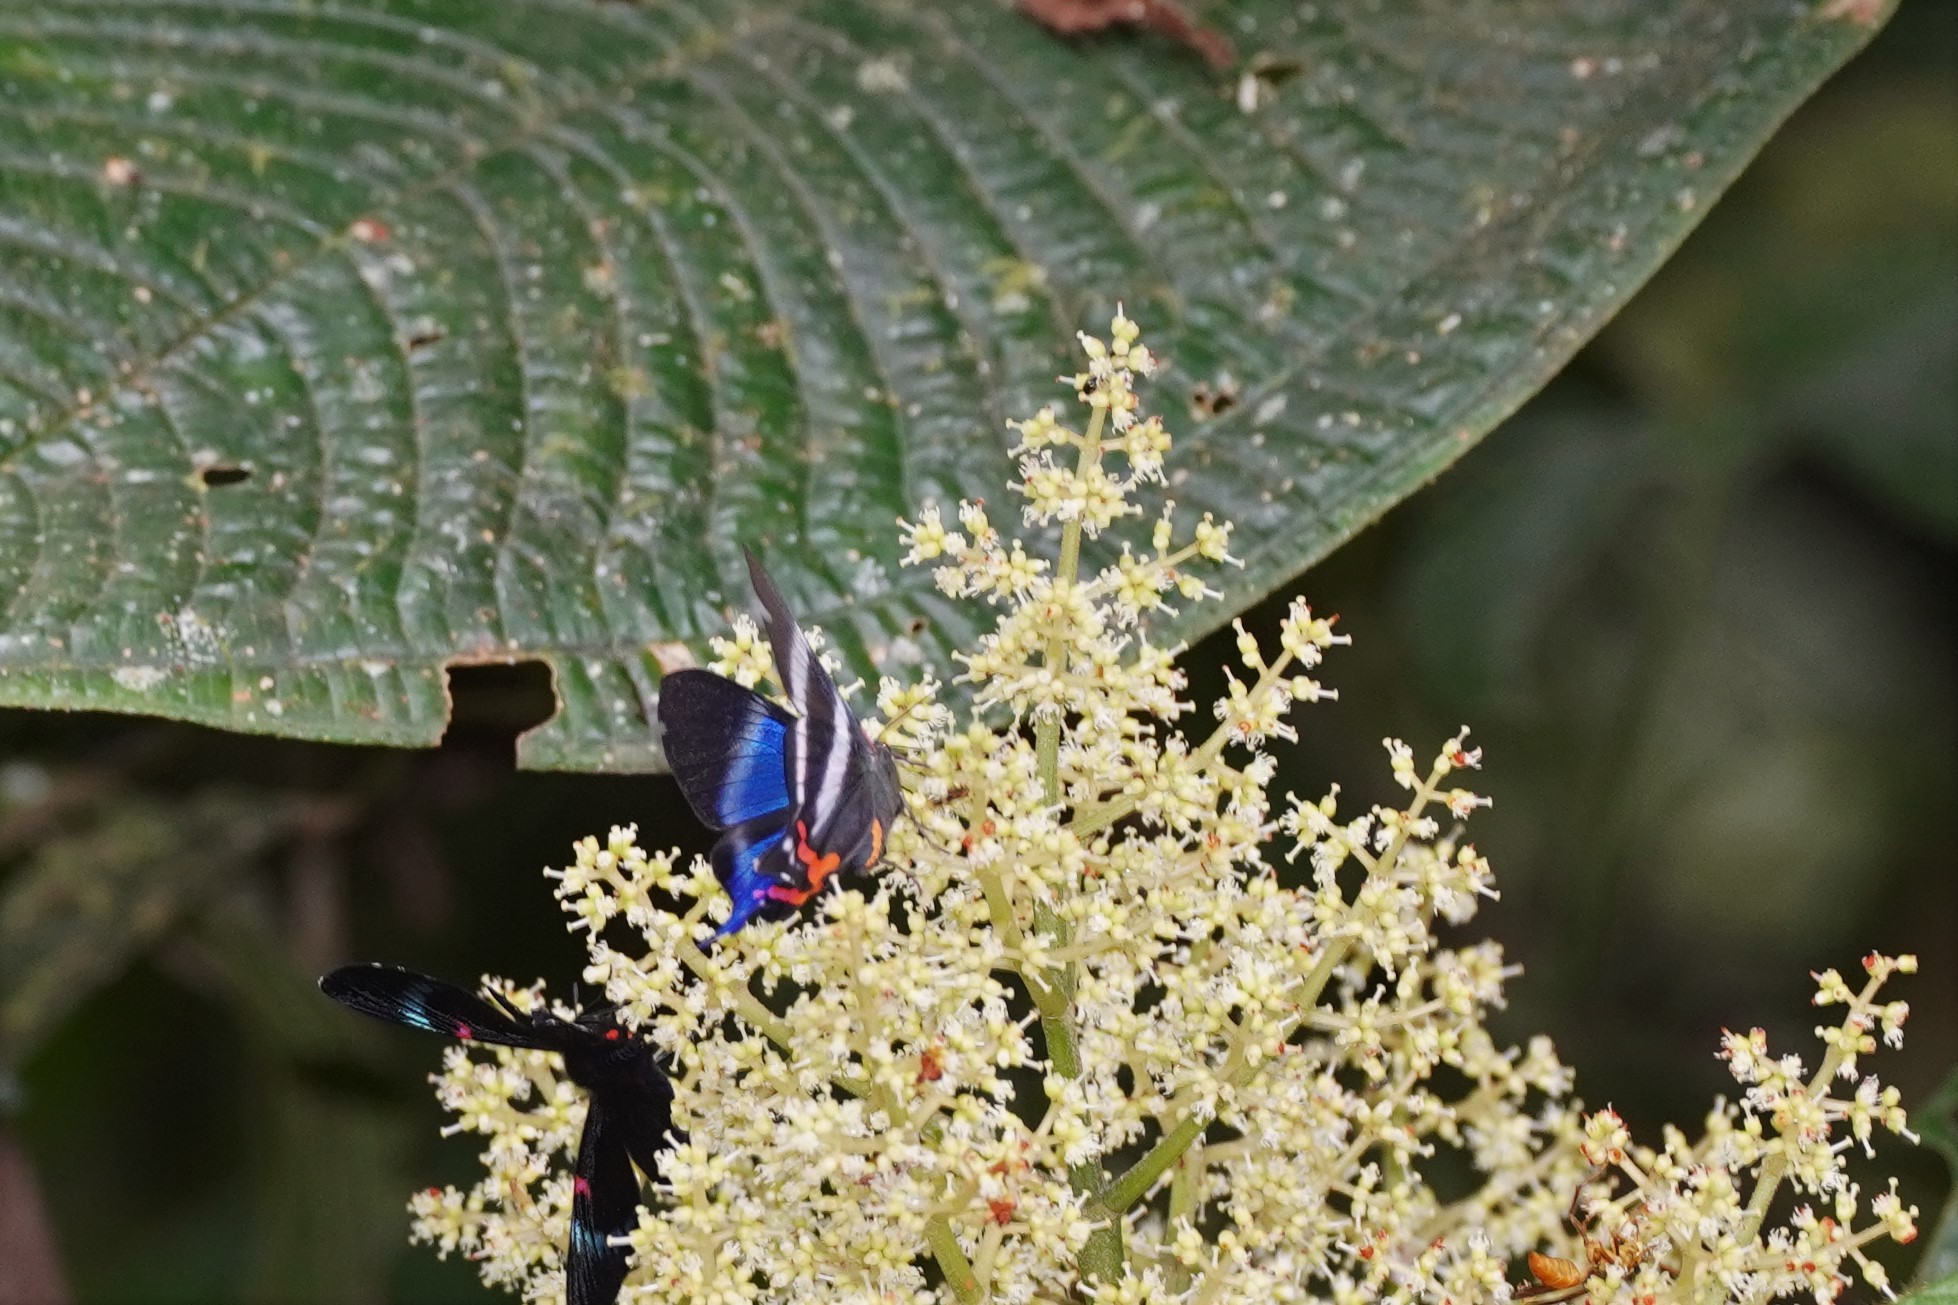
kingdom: Animalia
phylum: Arthropoda
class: Insecta
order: Lepidoptera
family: Riodinidae
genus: Rhetus
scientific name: Rhetus dysonii
